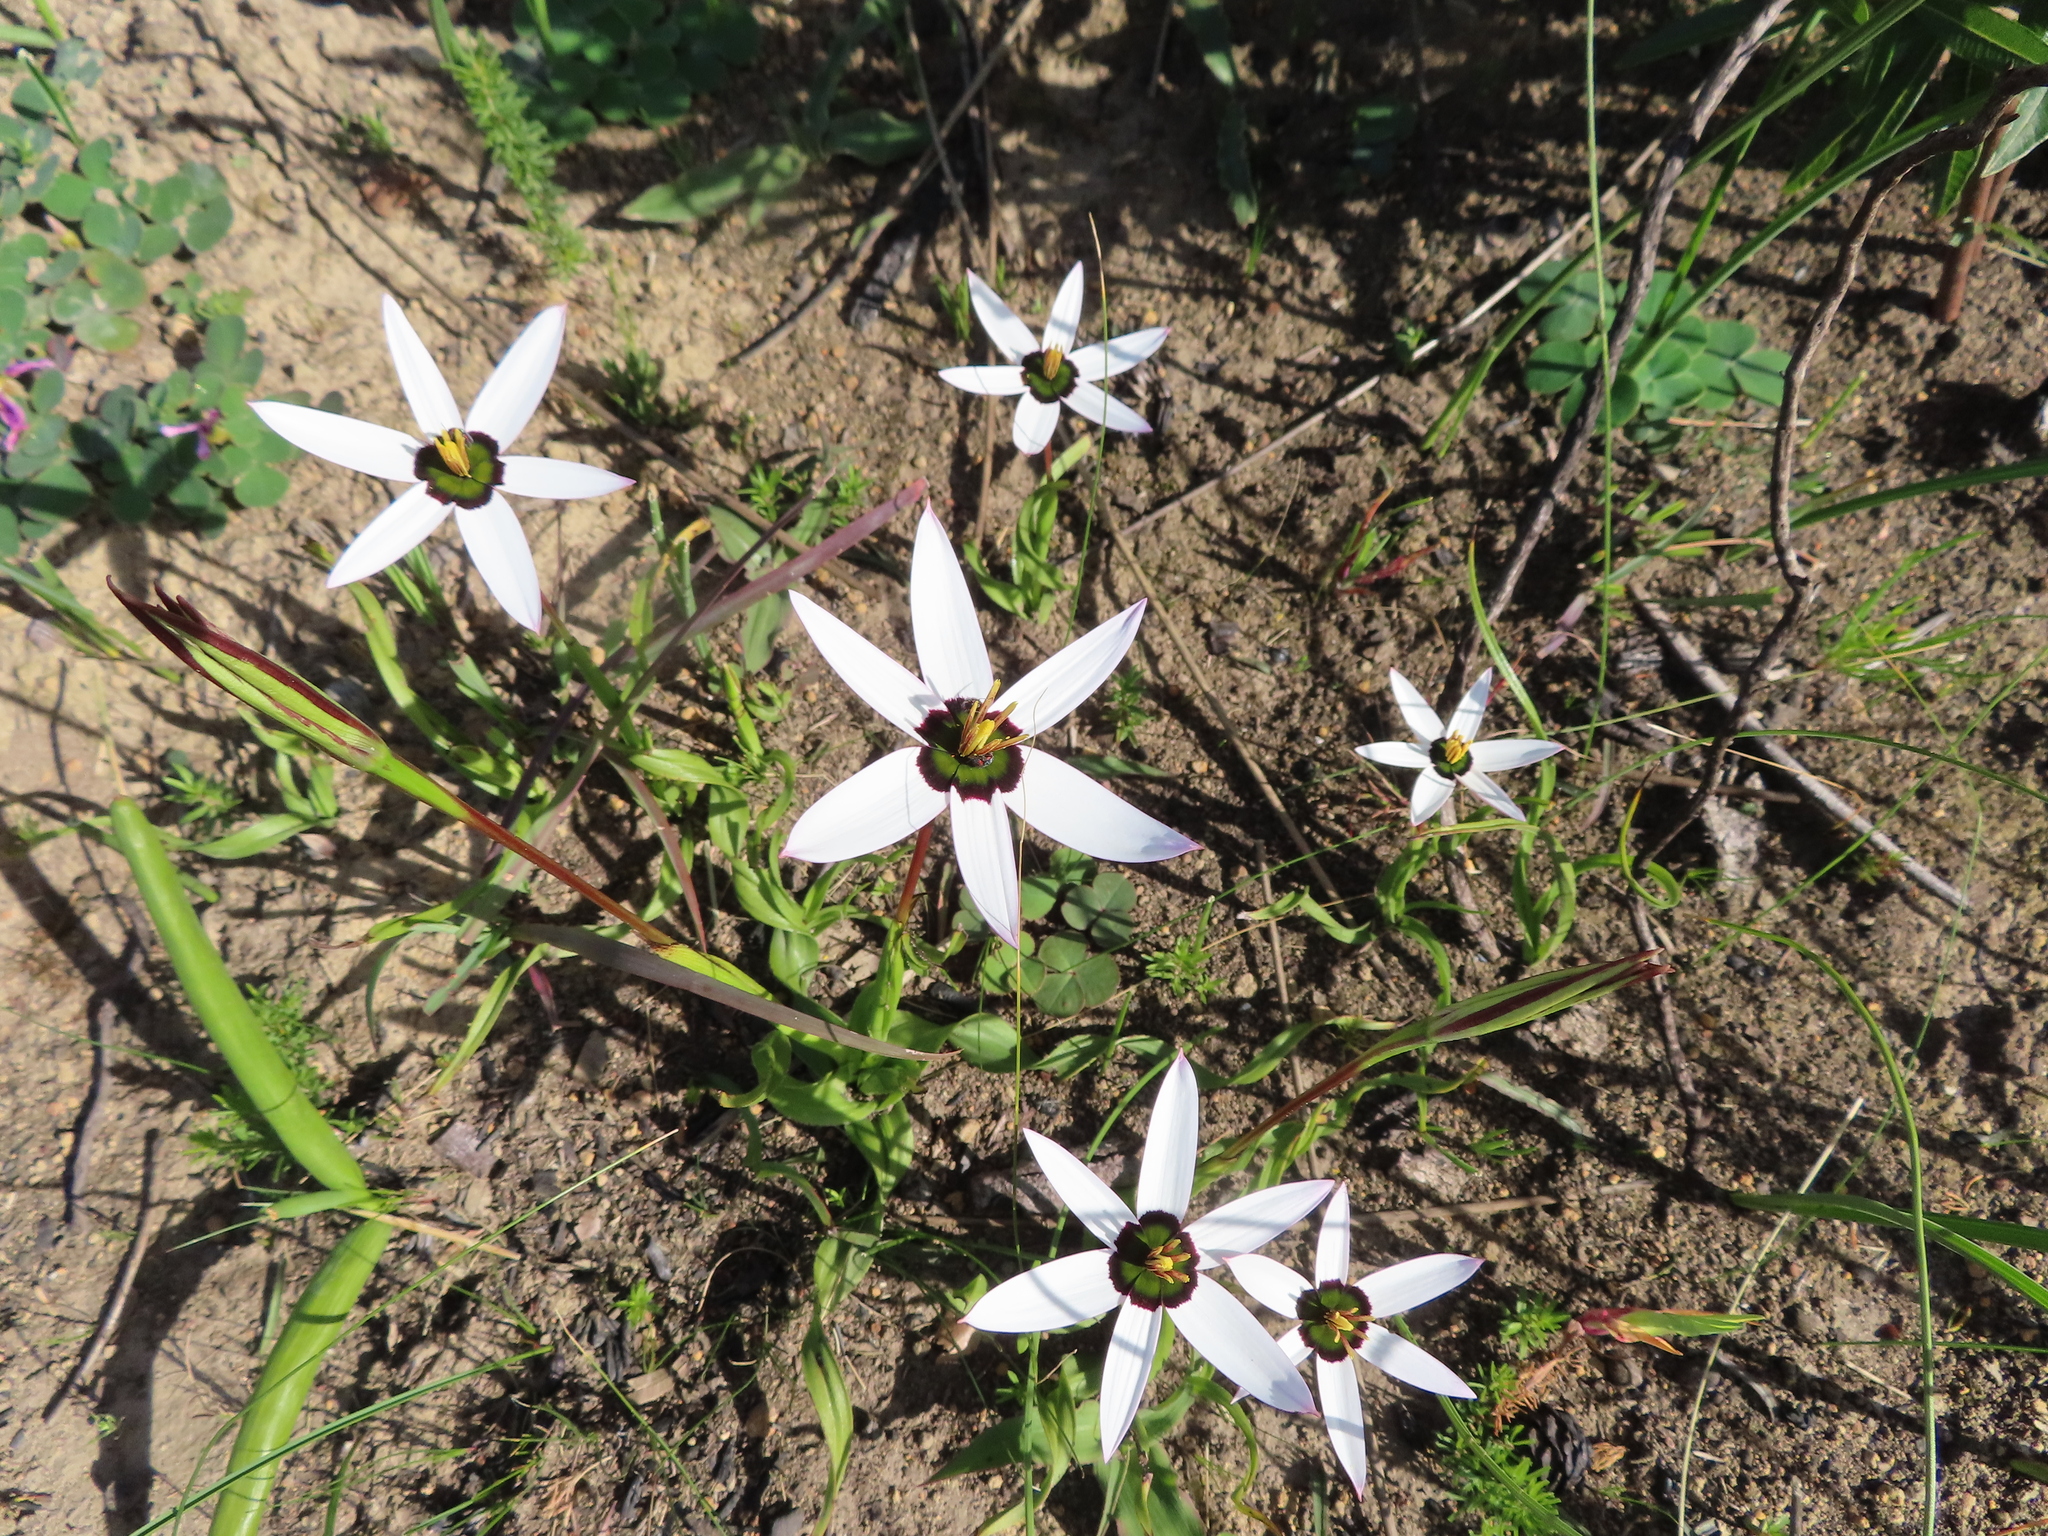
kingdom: Plantae
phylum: Tracheophyta
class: Liliopsida
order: Asparagales
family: Hypoxidaceae
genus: Pauridia
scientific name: Pauridia capensis
